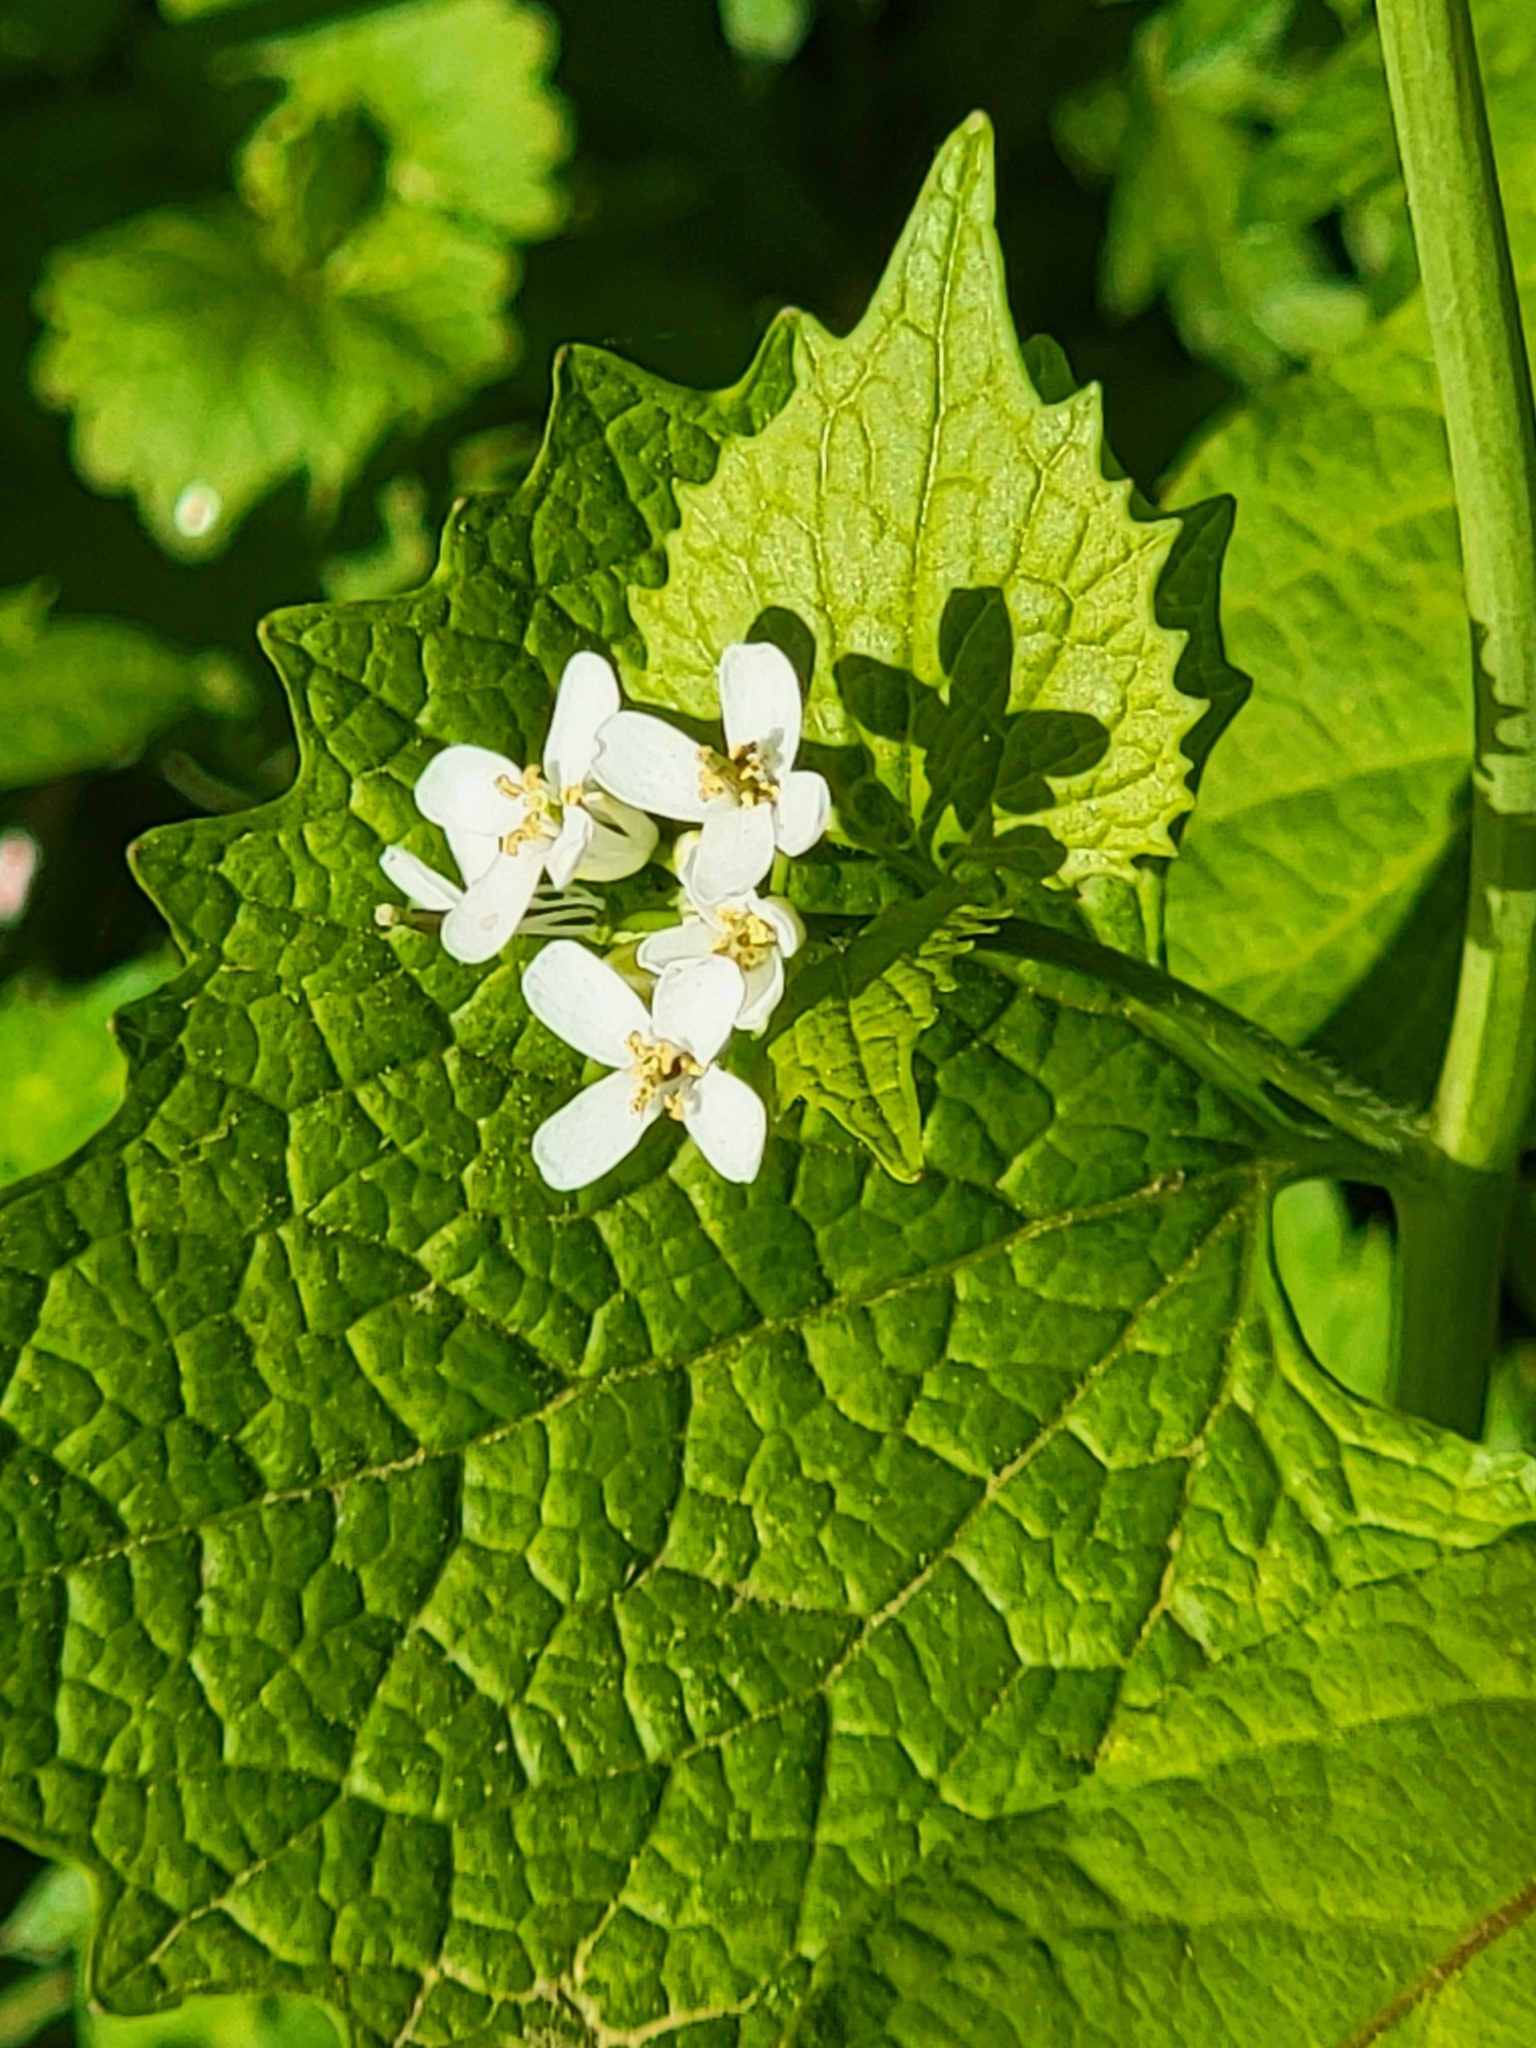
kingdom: Plantae
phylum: Tracheophyta
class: Magnoliopsida
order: Brassicales
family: Brassicaceae
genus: Alliaria
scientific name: Alliaria petiolata
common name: Garlic mustard
